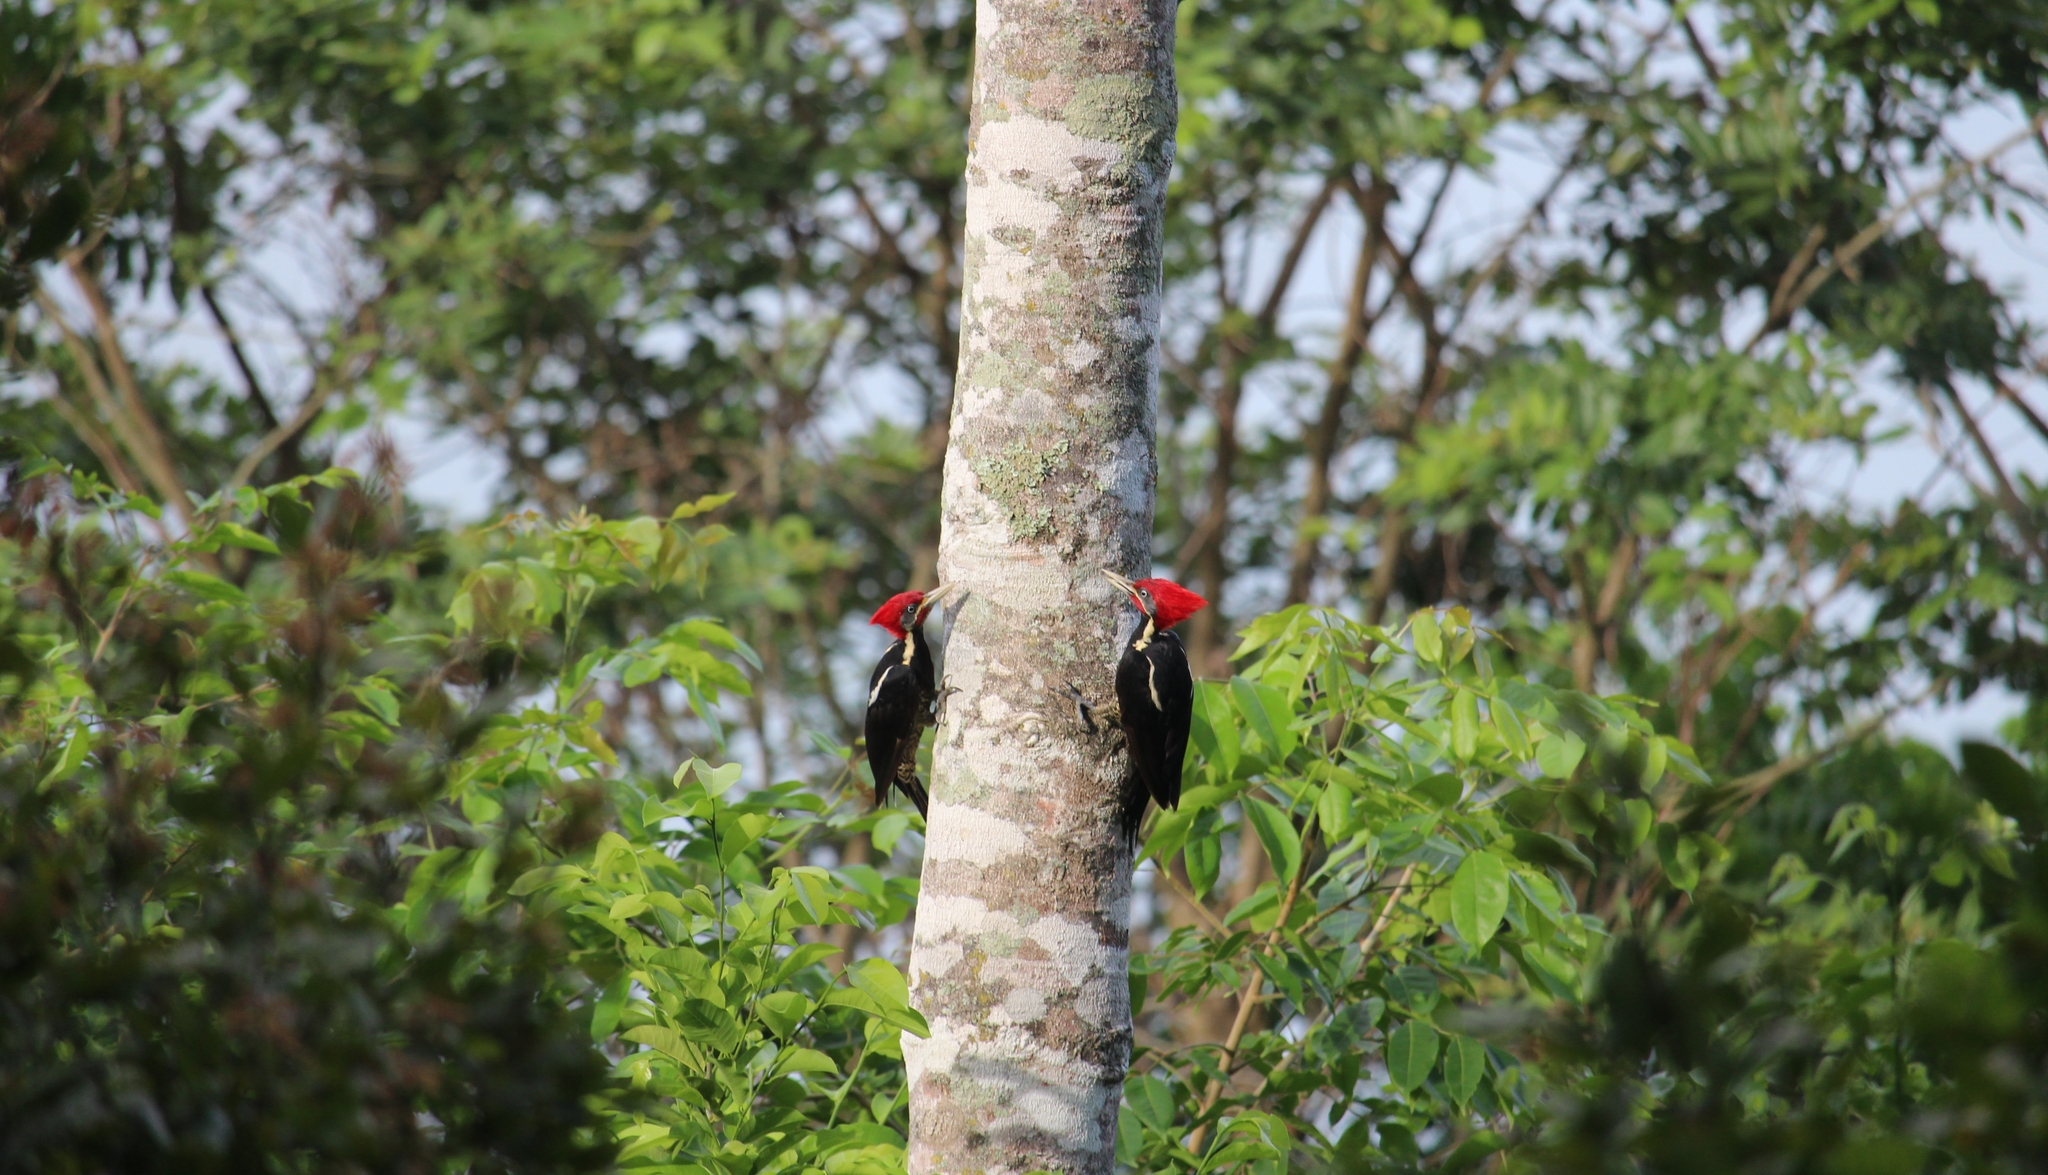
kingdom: Animalia
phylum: Chordata
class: Aves
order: Piciformes
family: Picidae
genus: Dryocopus
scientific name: Dryocopus lineatus
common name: Lineated woodpecker
